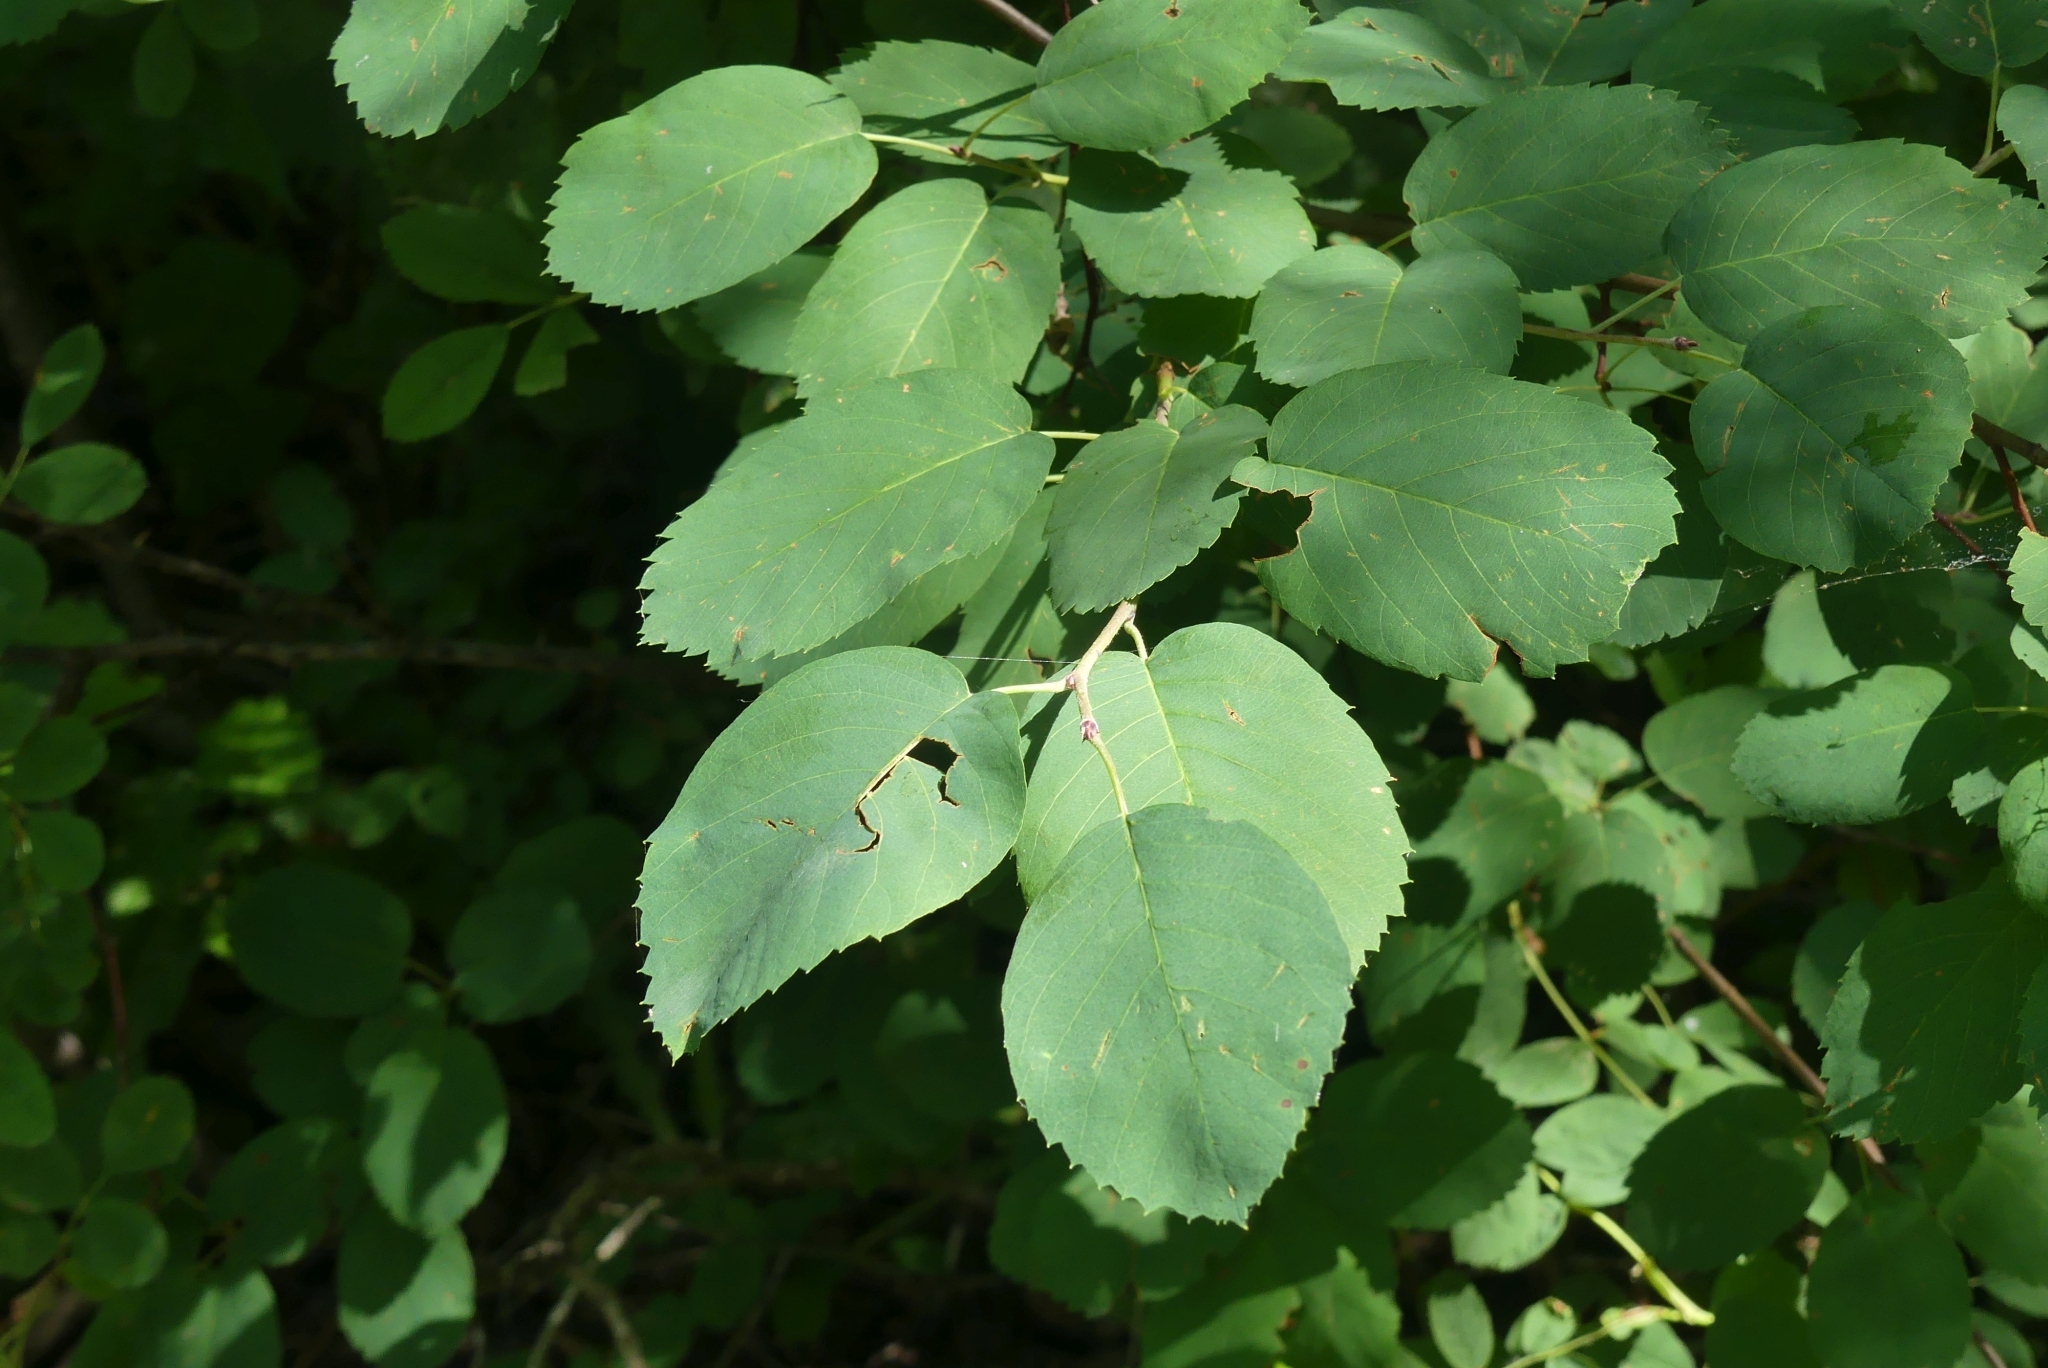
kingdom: Plantae
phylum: Tracheophyta
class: Magnoliopsida
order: Rosales
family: Rosaceae
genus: Amelanchier
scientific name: Amelanchier alnifolia
